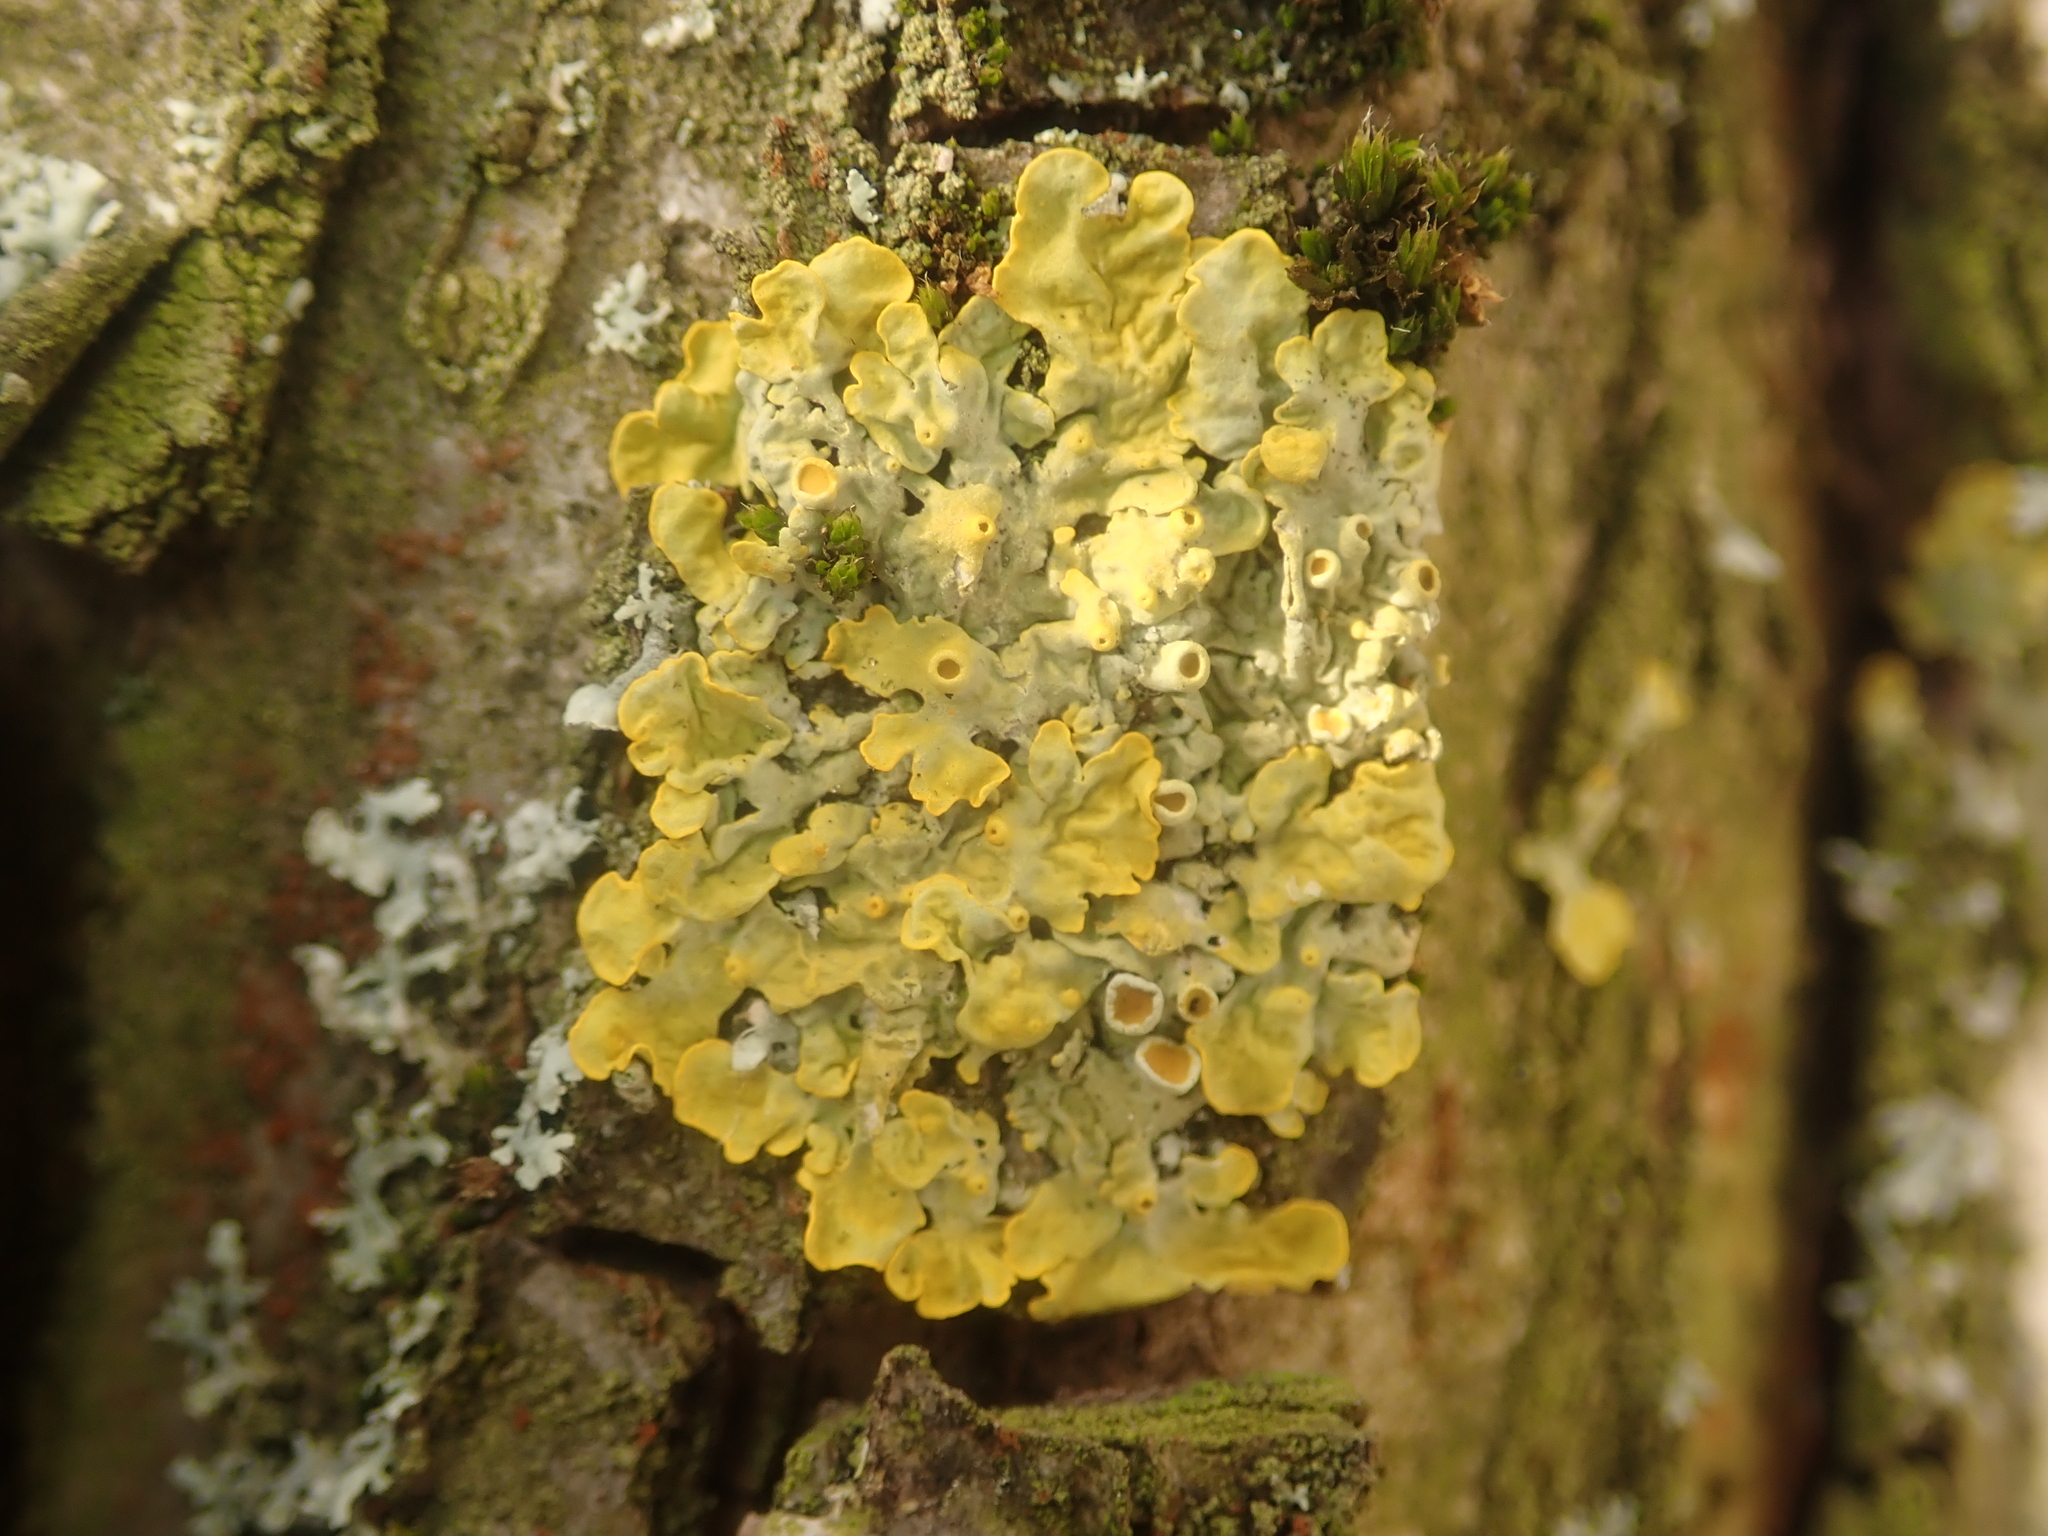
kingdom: Fungi
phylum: Ascomycota
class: Lecanoromycetes
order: Teloschistales
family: Teloschistaceae
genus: Xanthoria
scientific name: Xanthoria parietina
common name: Common orange lichen
